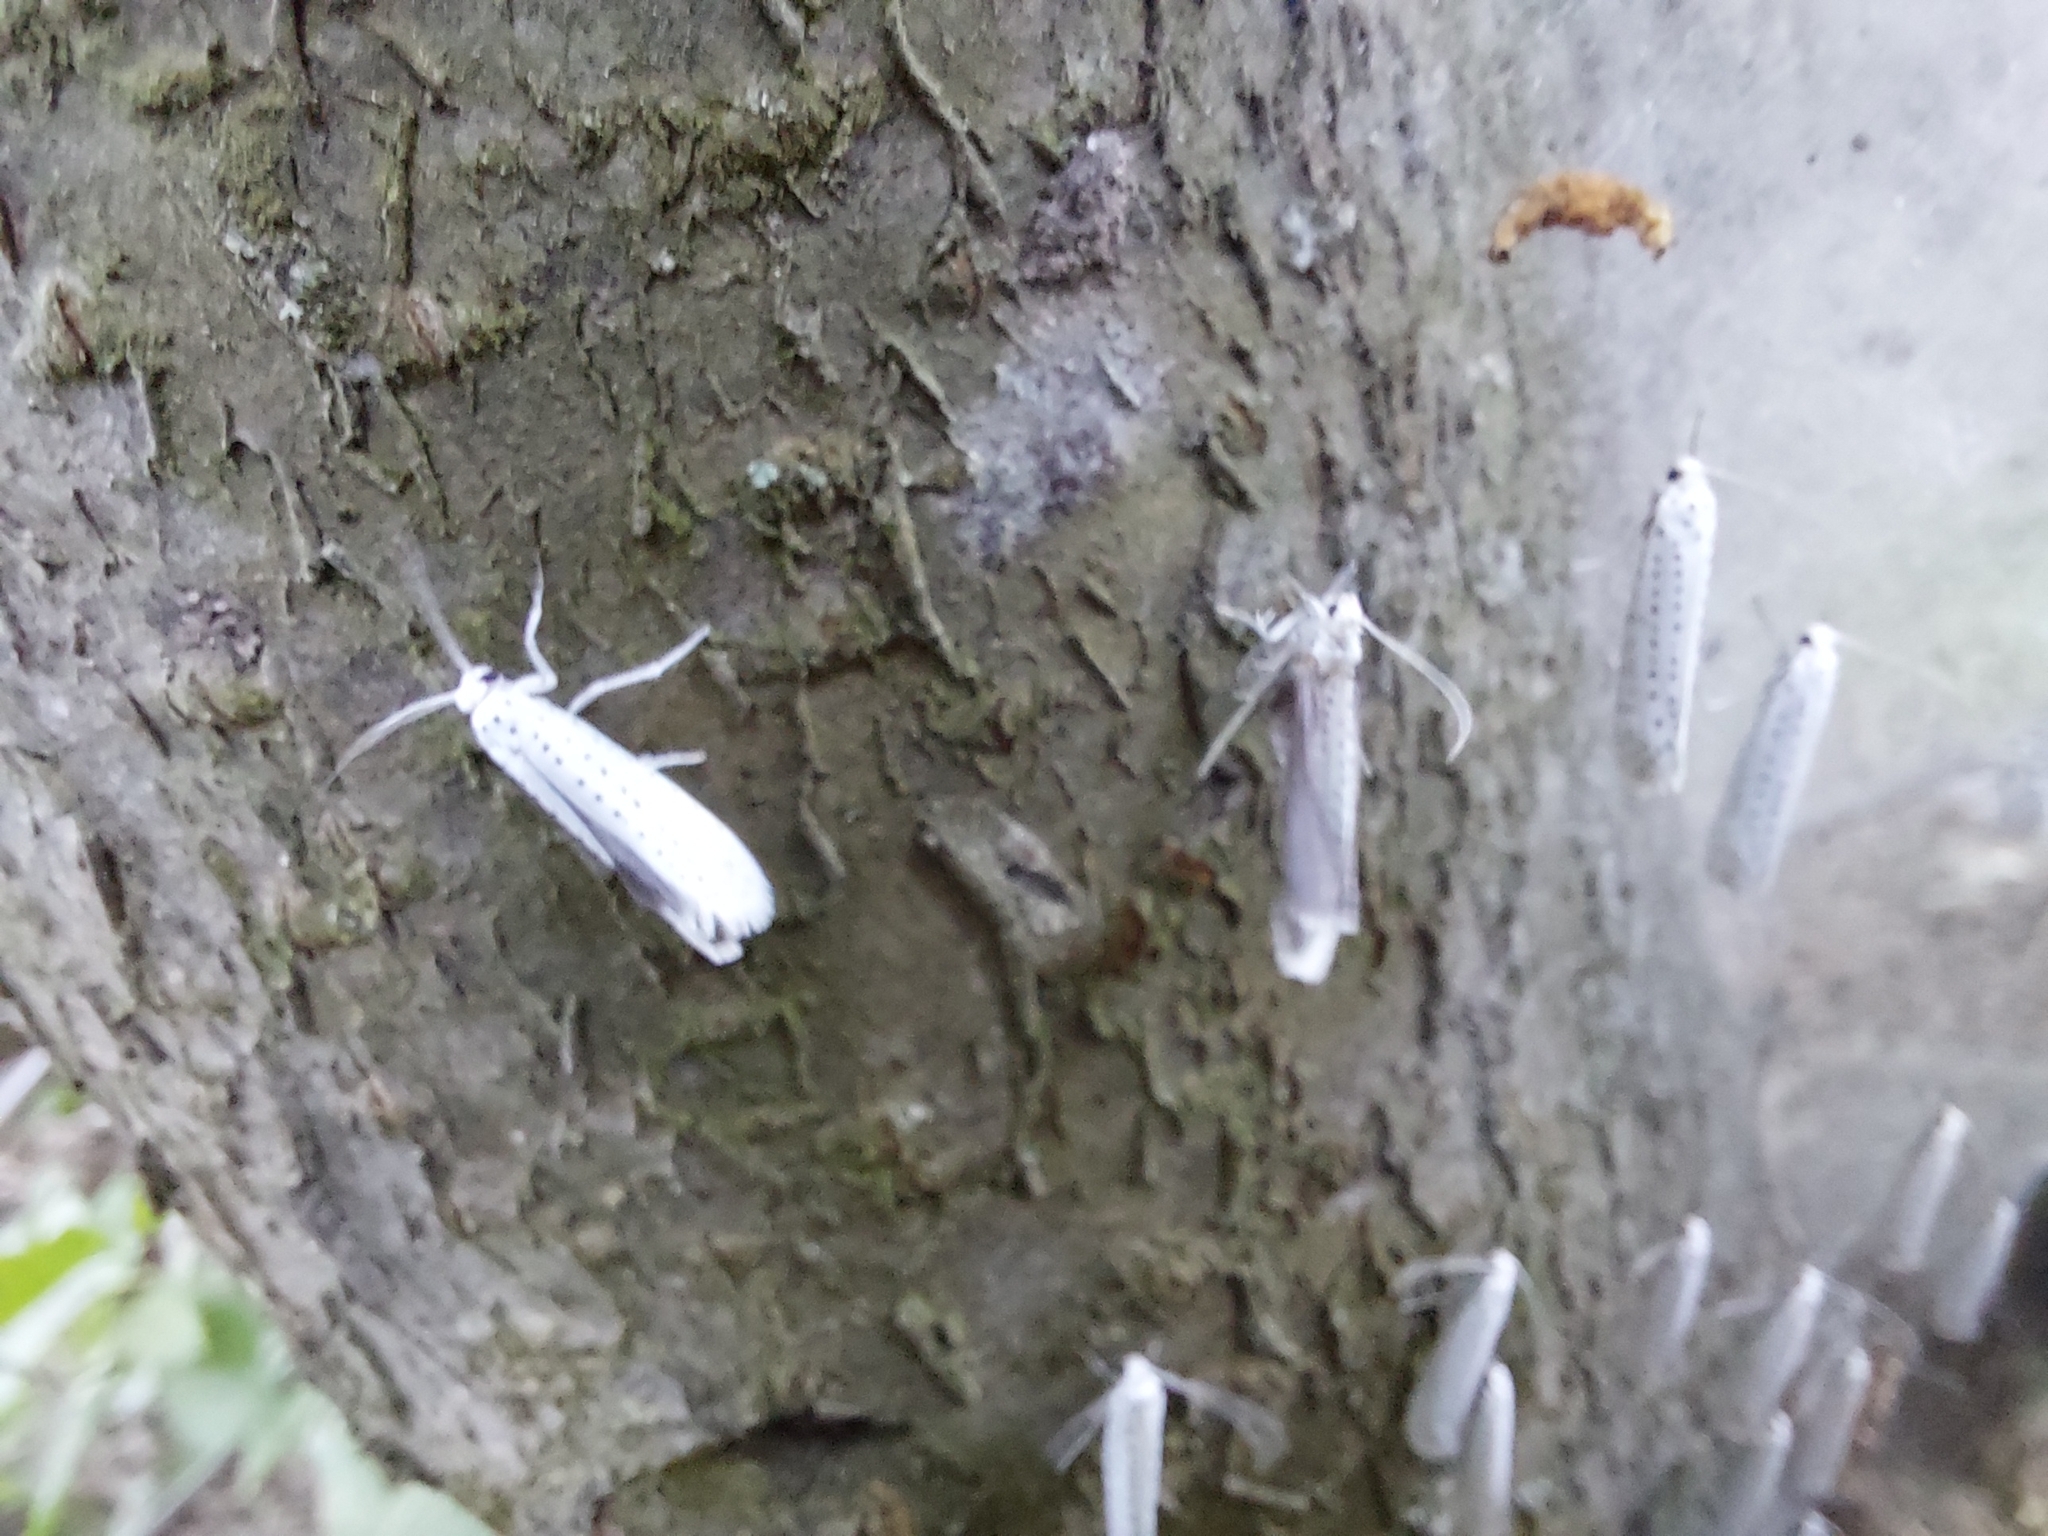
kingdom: Animalia
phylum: Arthropoda
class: Insecta
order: Lepidoptera
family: Yponomeutidae
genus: Yponomeuta
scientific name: Yponomeuta evonymella
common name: Bird-cherry ermine
